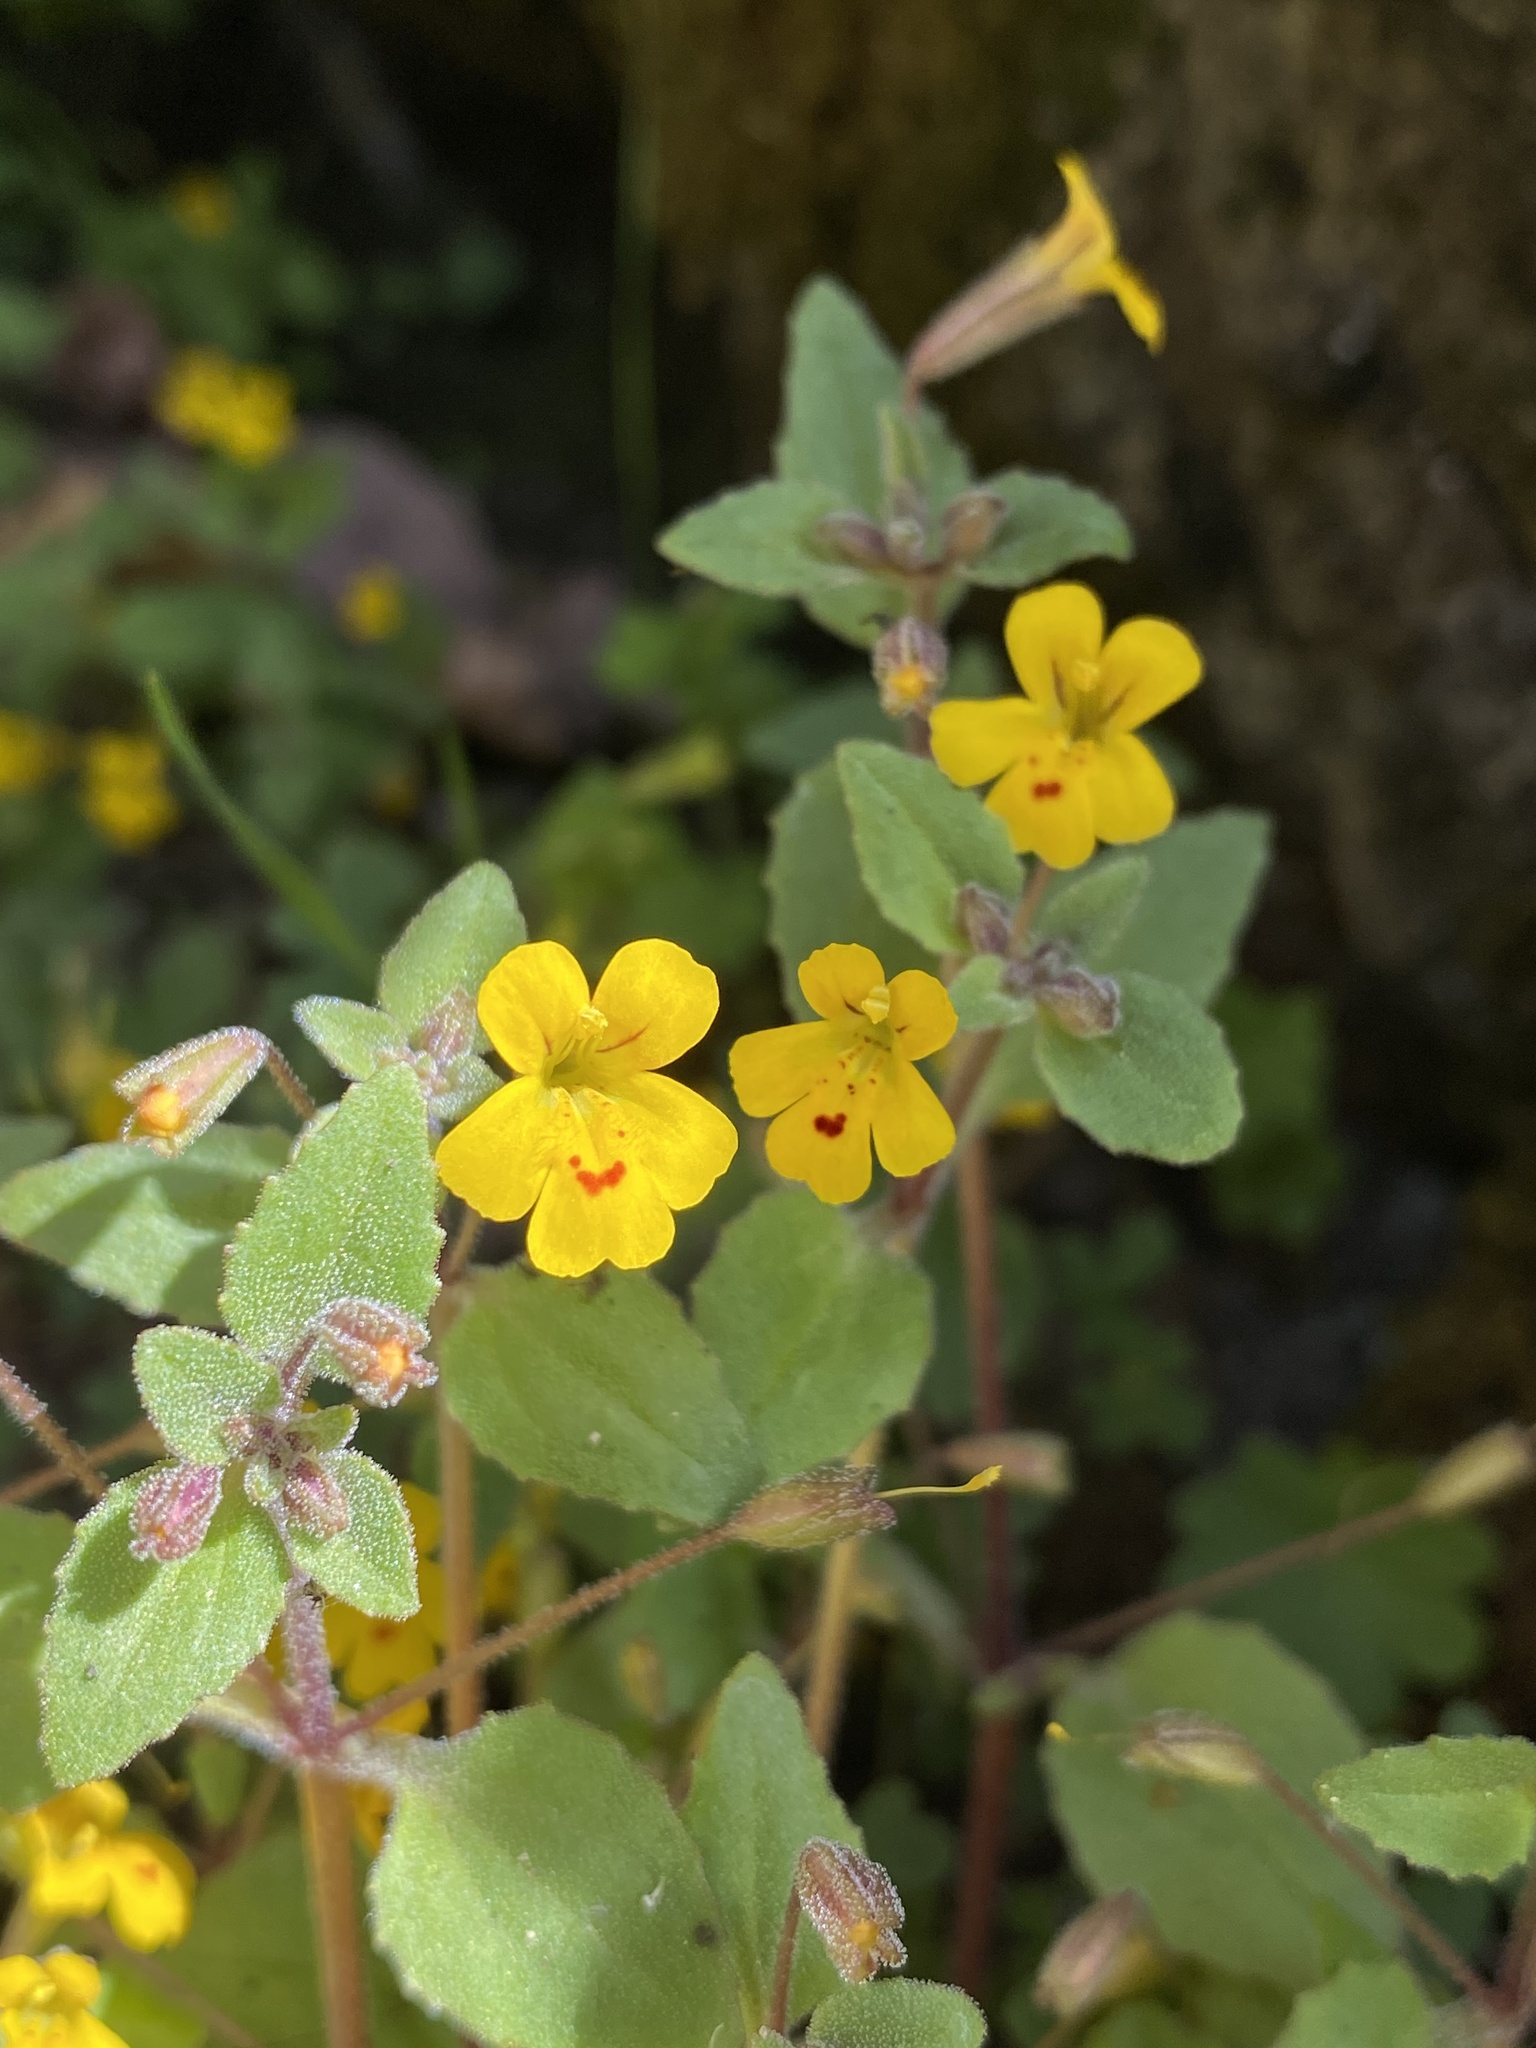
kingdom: Plantae
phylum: Tracheophyta
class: Magnoliopsida
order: Lamiales
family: Phrymaceae
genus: Erythranthe
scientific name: Erythranthe alsinoides
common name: Chickweed monkeyflower
